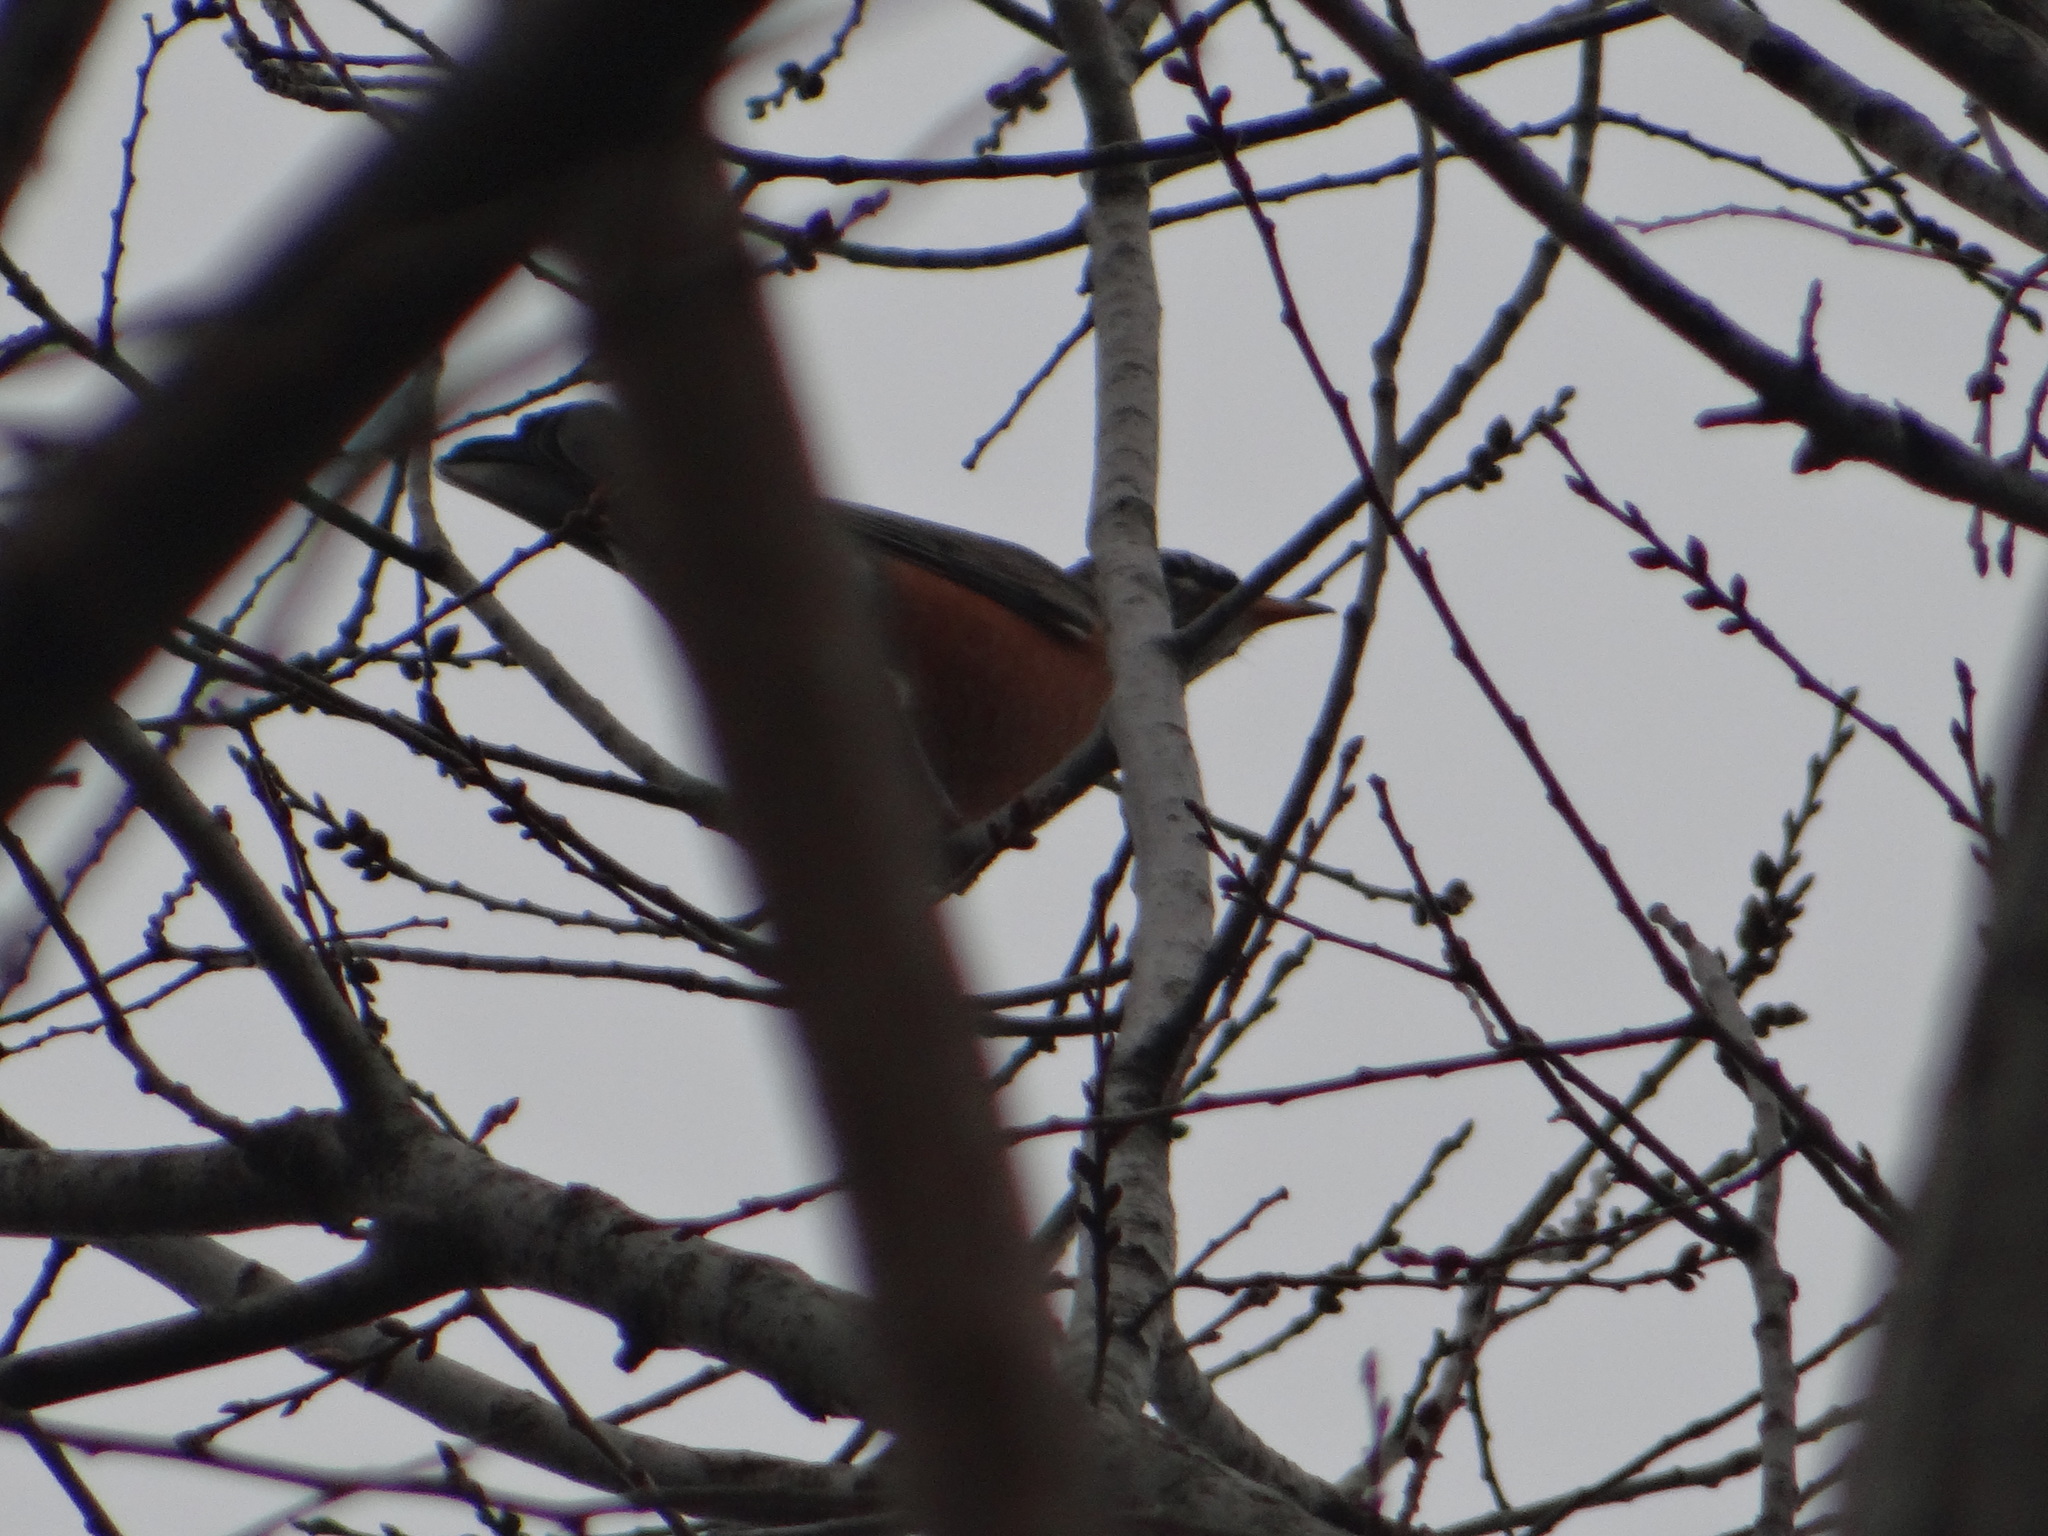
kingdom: Animalia
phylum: Chordata
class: Aves
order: Passeriformes
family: Turdidae
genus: Turdus
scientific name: Turdus migratorius
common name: American robin
